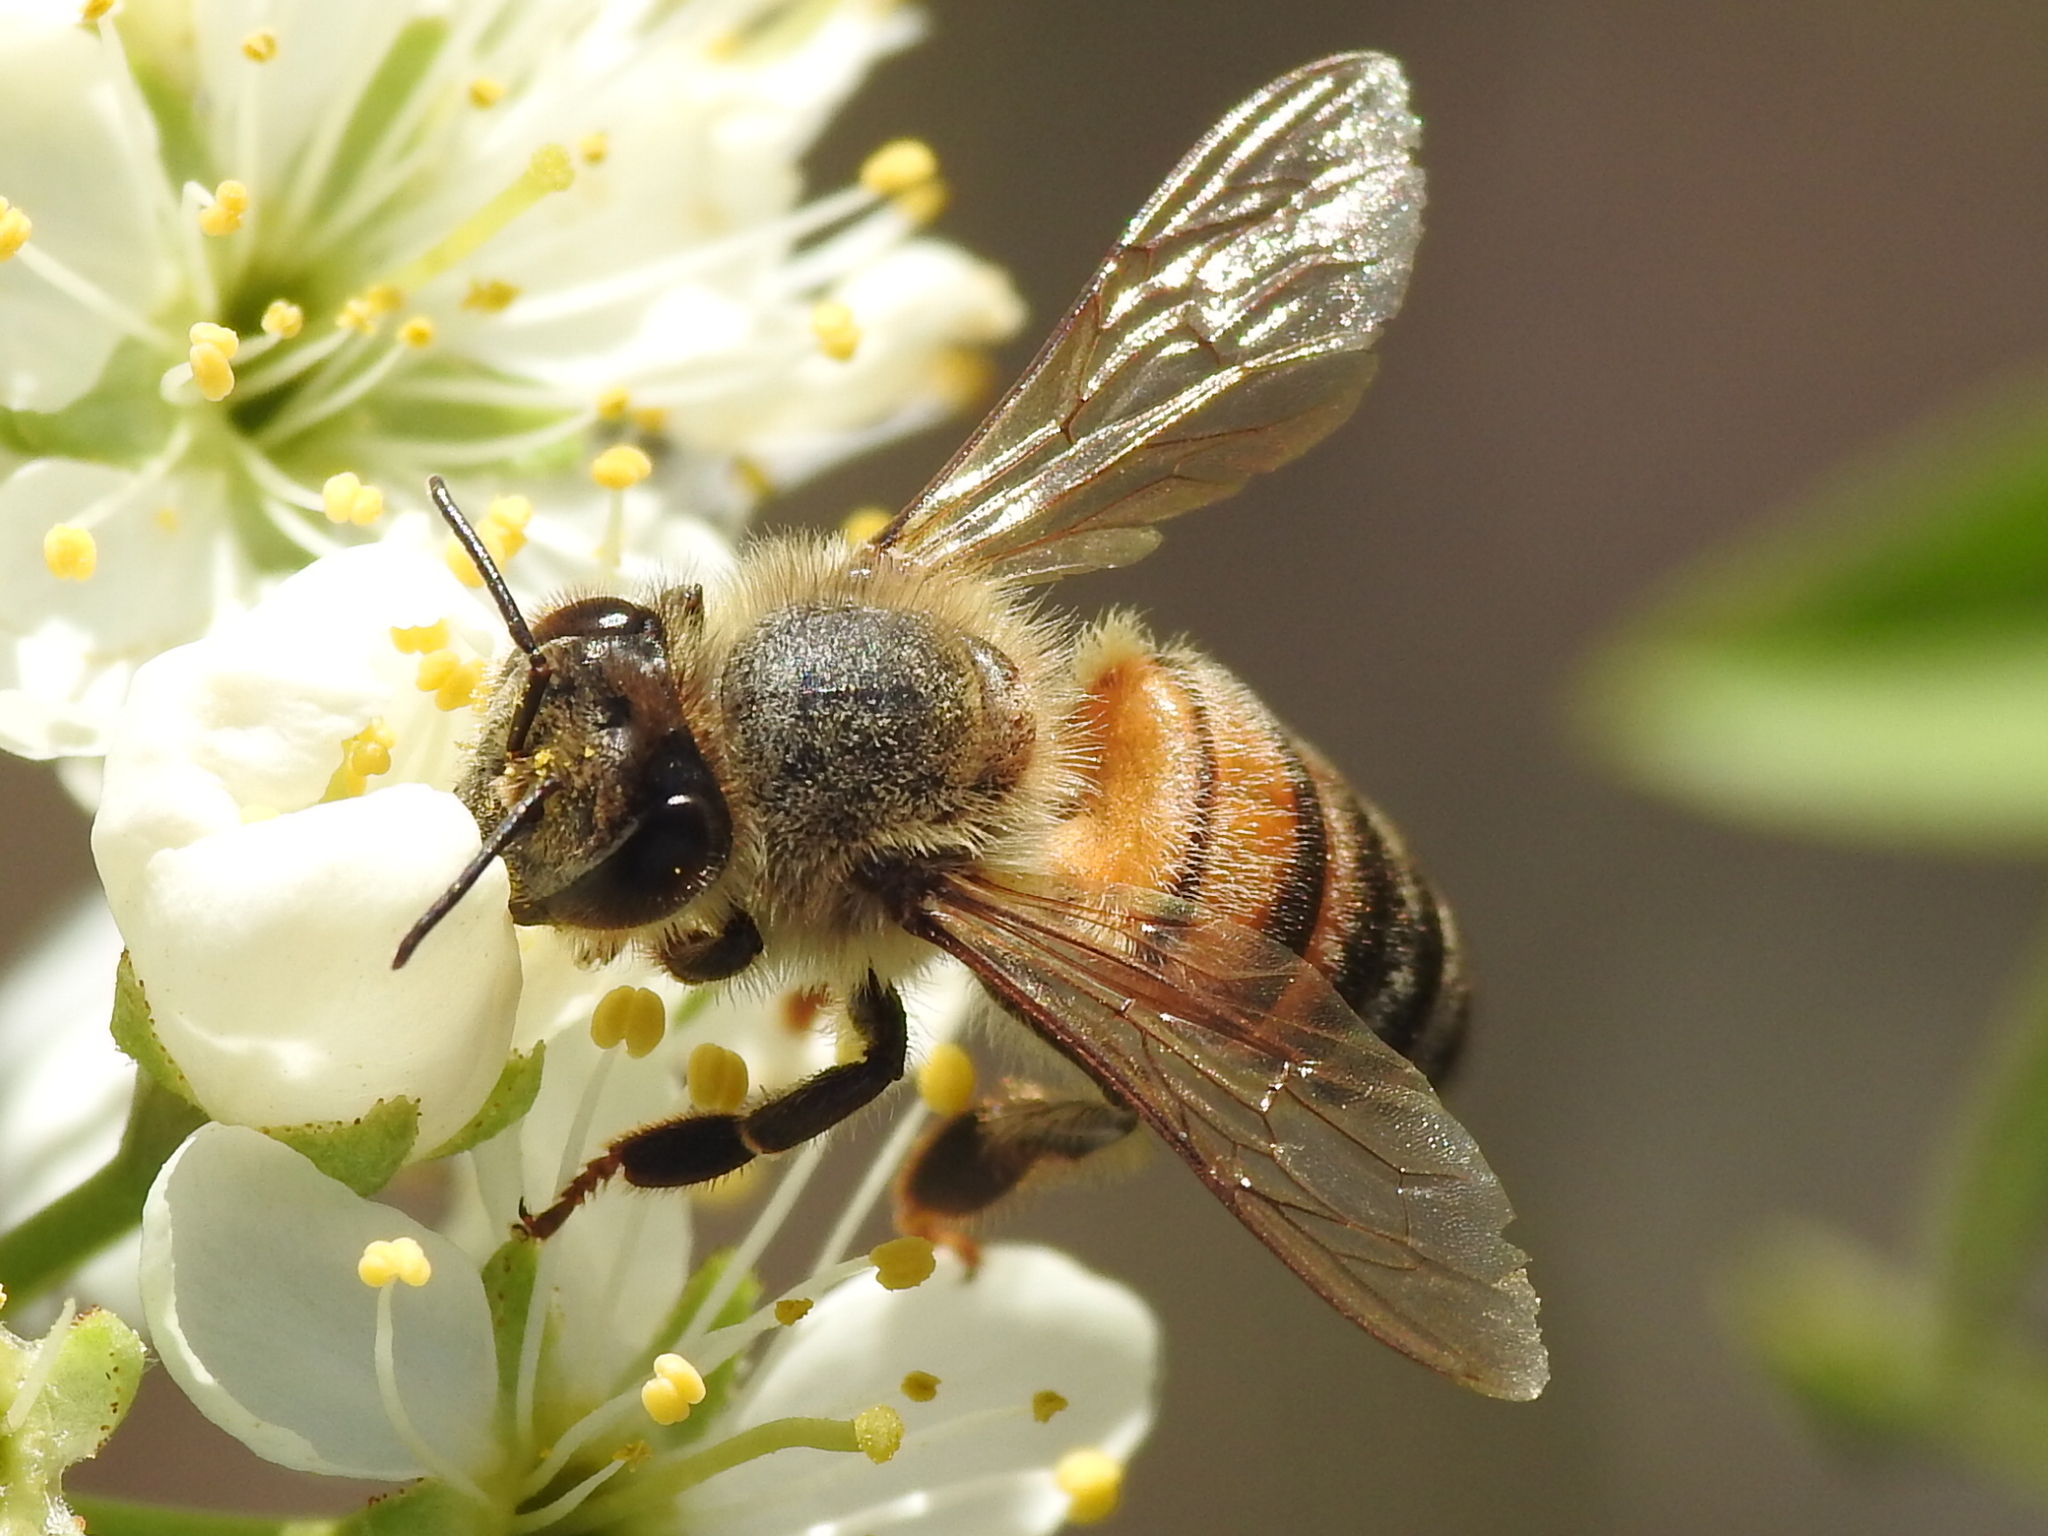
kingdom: Animalia
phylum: Arthropoda
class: Insecta
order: Hymenoptera
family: Apidae
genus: Apis
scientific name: Apis mellifera
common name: Honey bee
